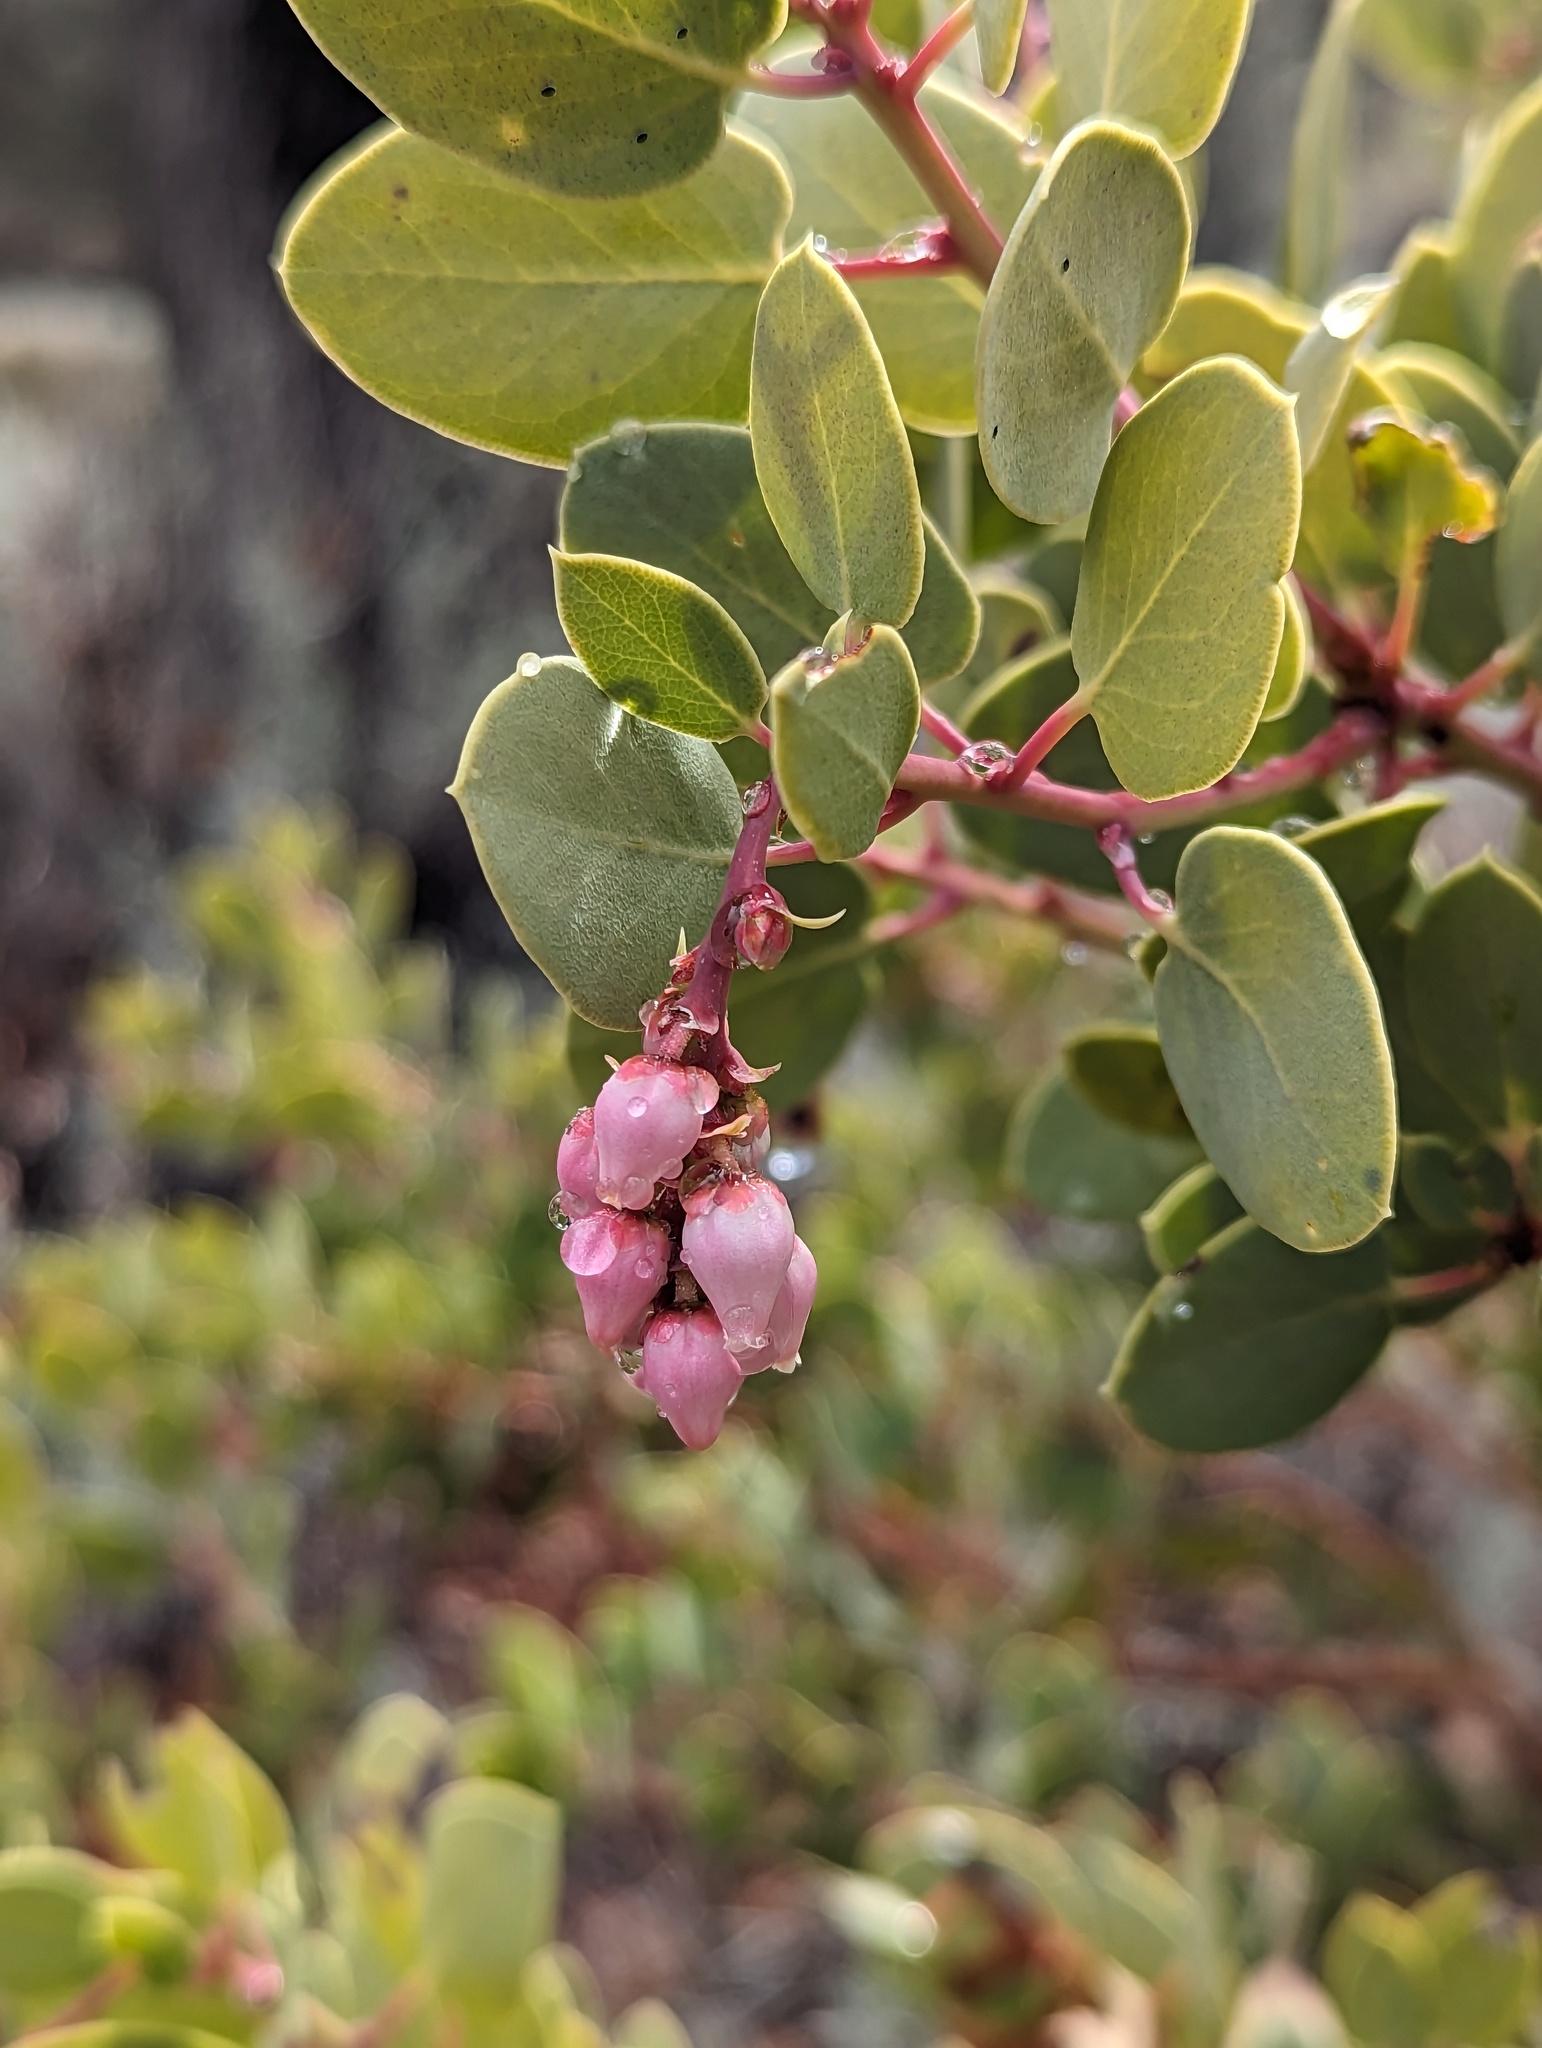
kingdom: Plantae
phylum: Tracheophyta
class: Magnoliopsida
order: Ericales
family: Ericaceae
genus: Arctostaphylos
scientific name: Arctostaphylos glauca
